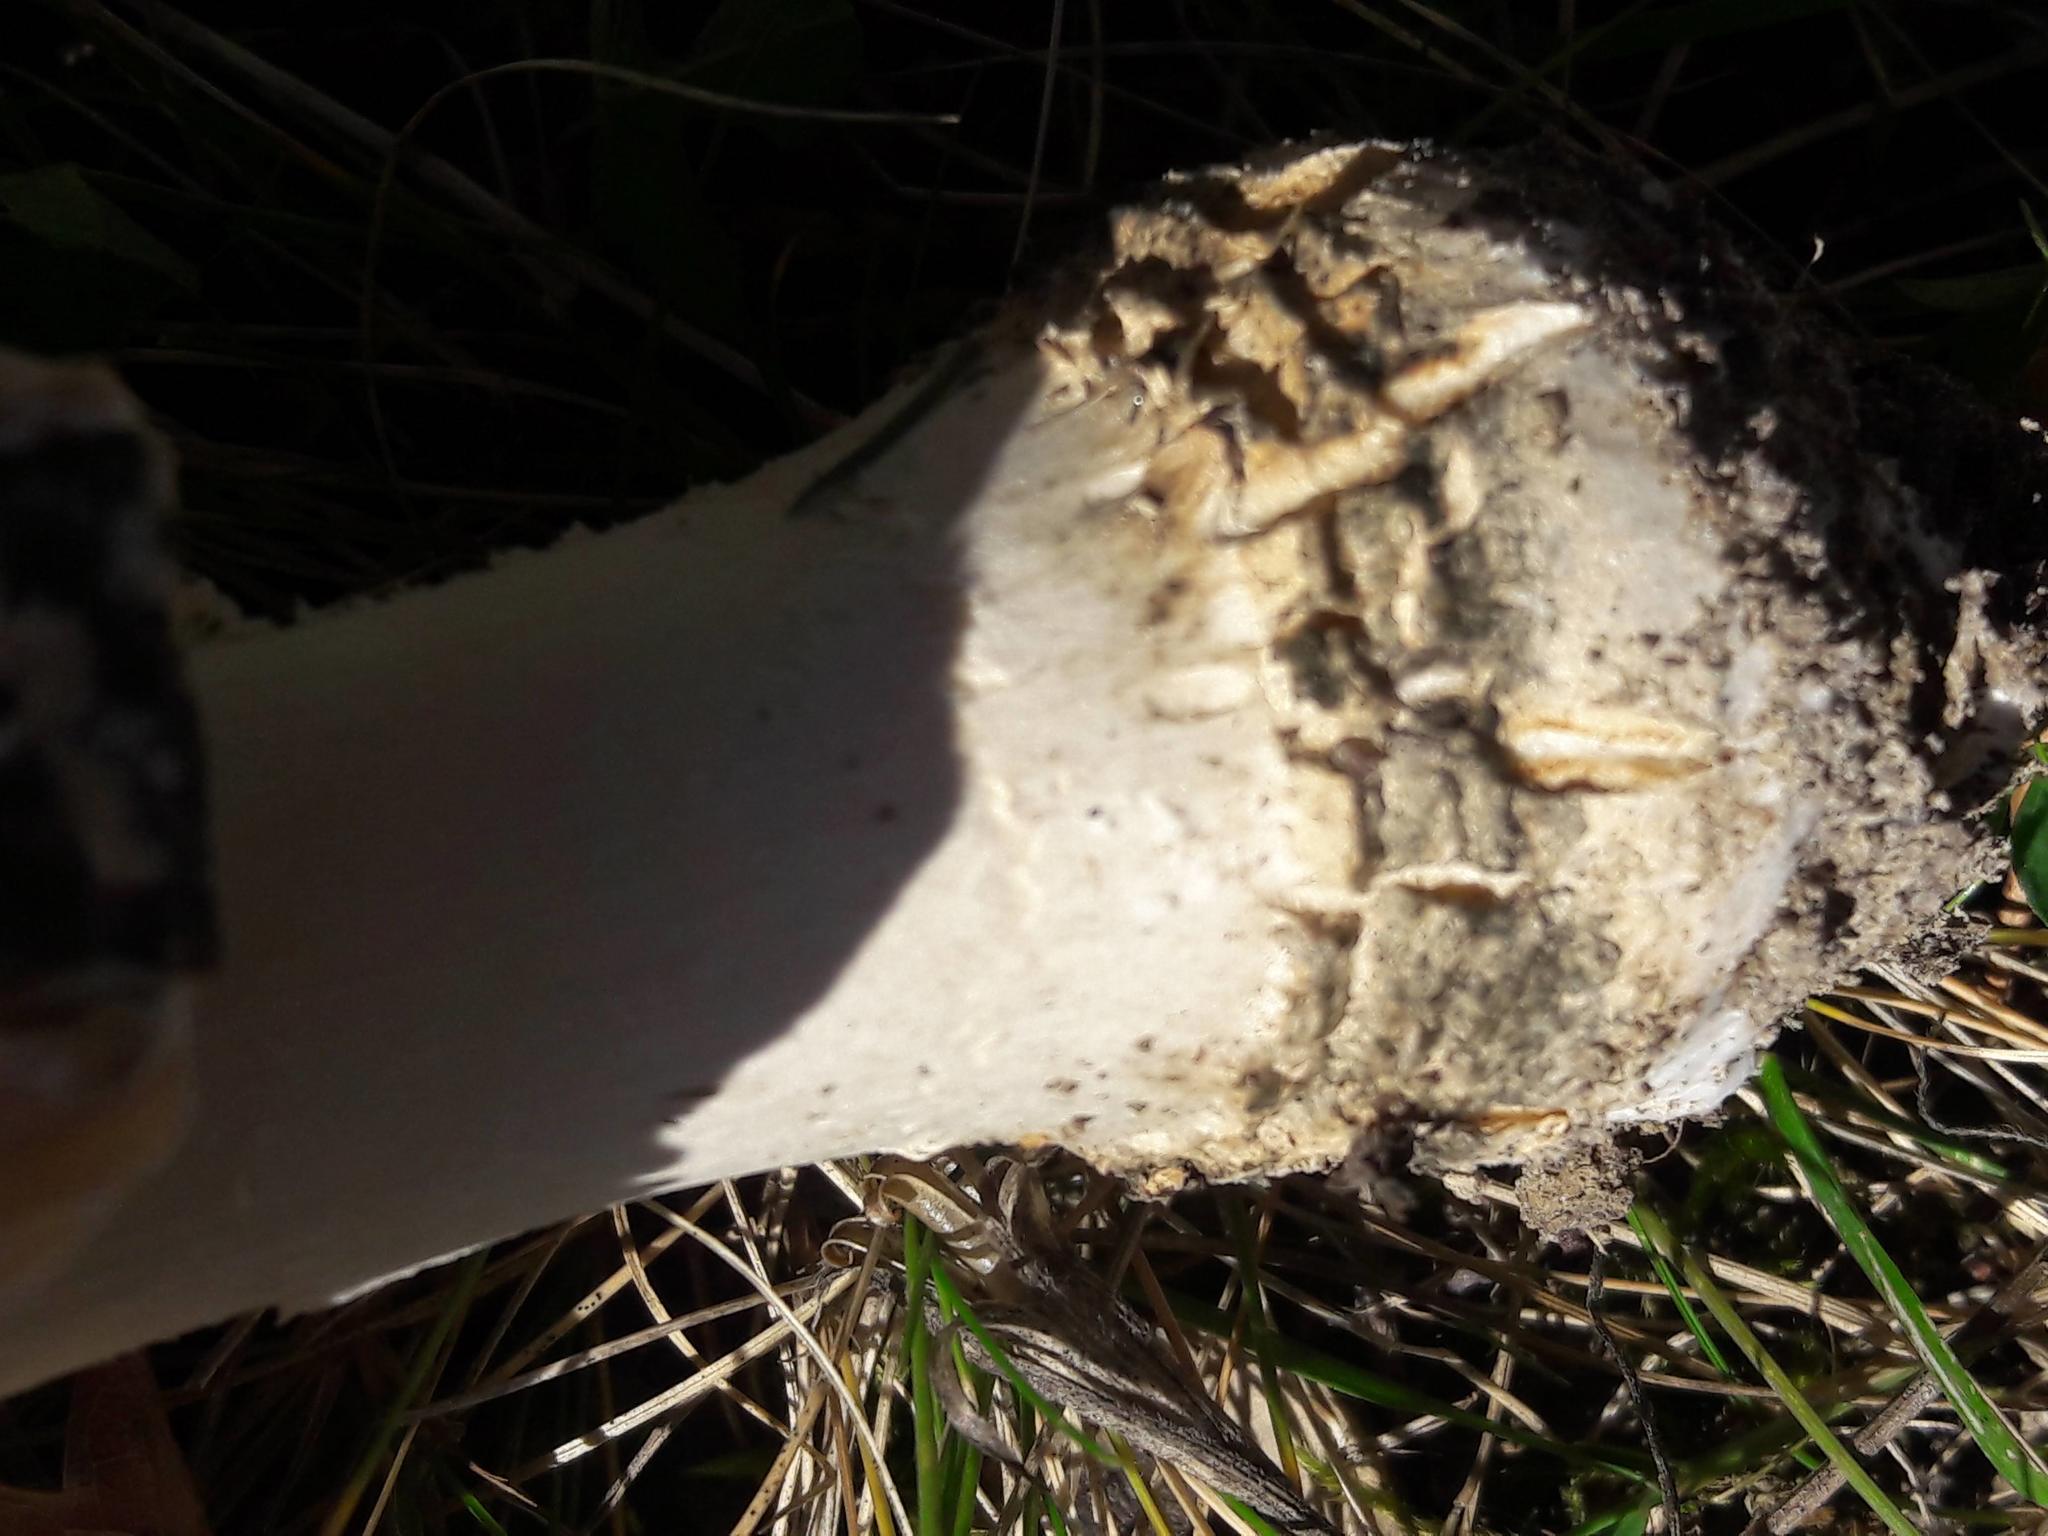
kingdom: Fungi
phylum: Basidiomycota
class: Agaricomycetes
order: Agaricales
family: Amanitaceae
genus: Amanita
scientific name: Amanita muscaria
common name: Fly agaric
